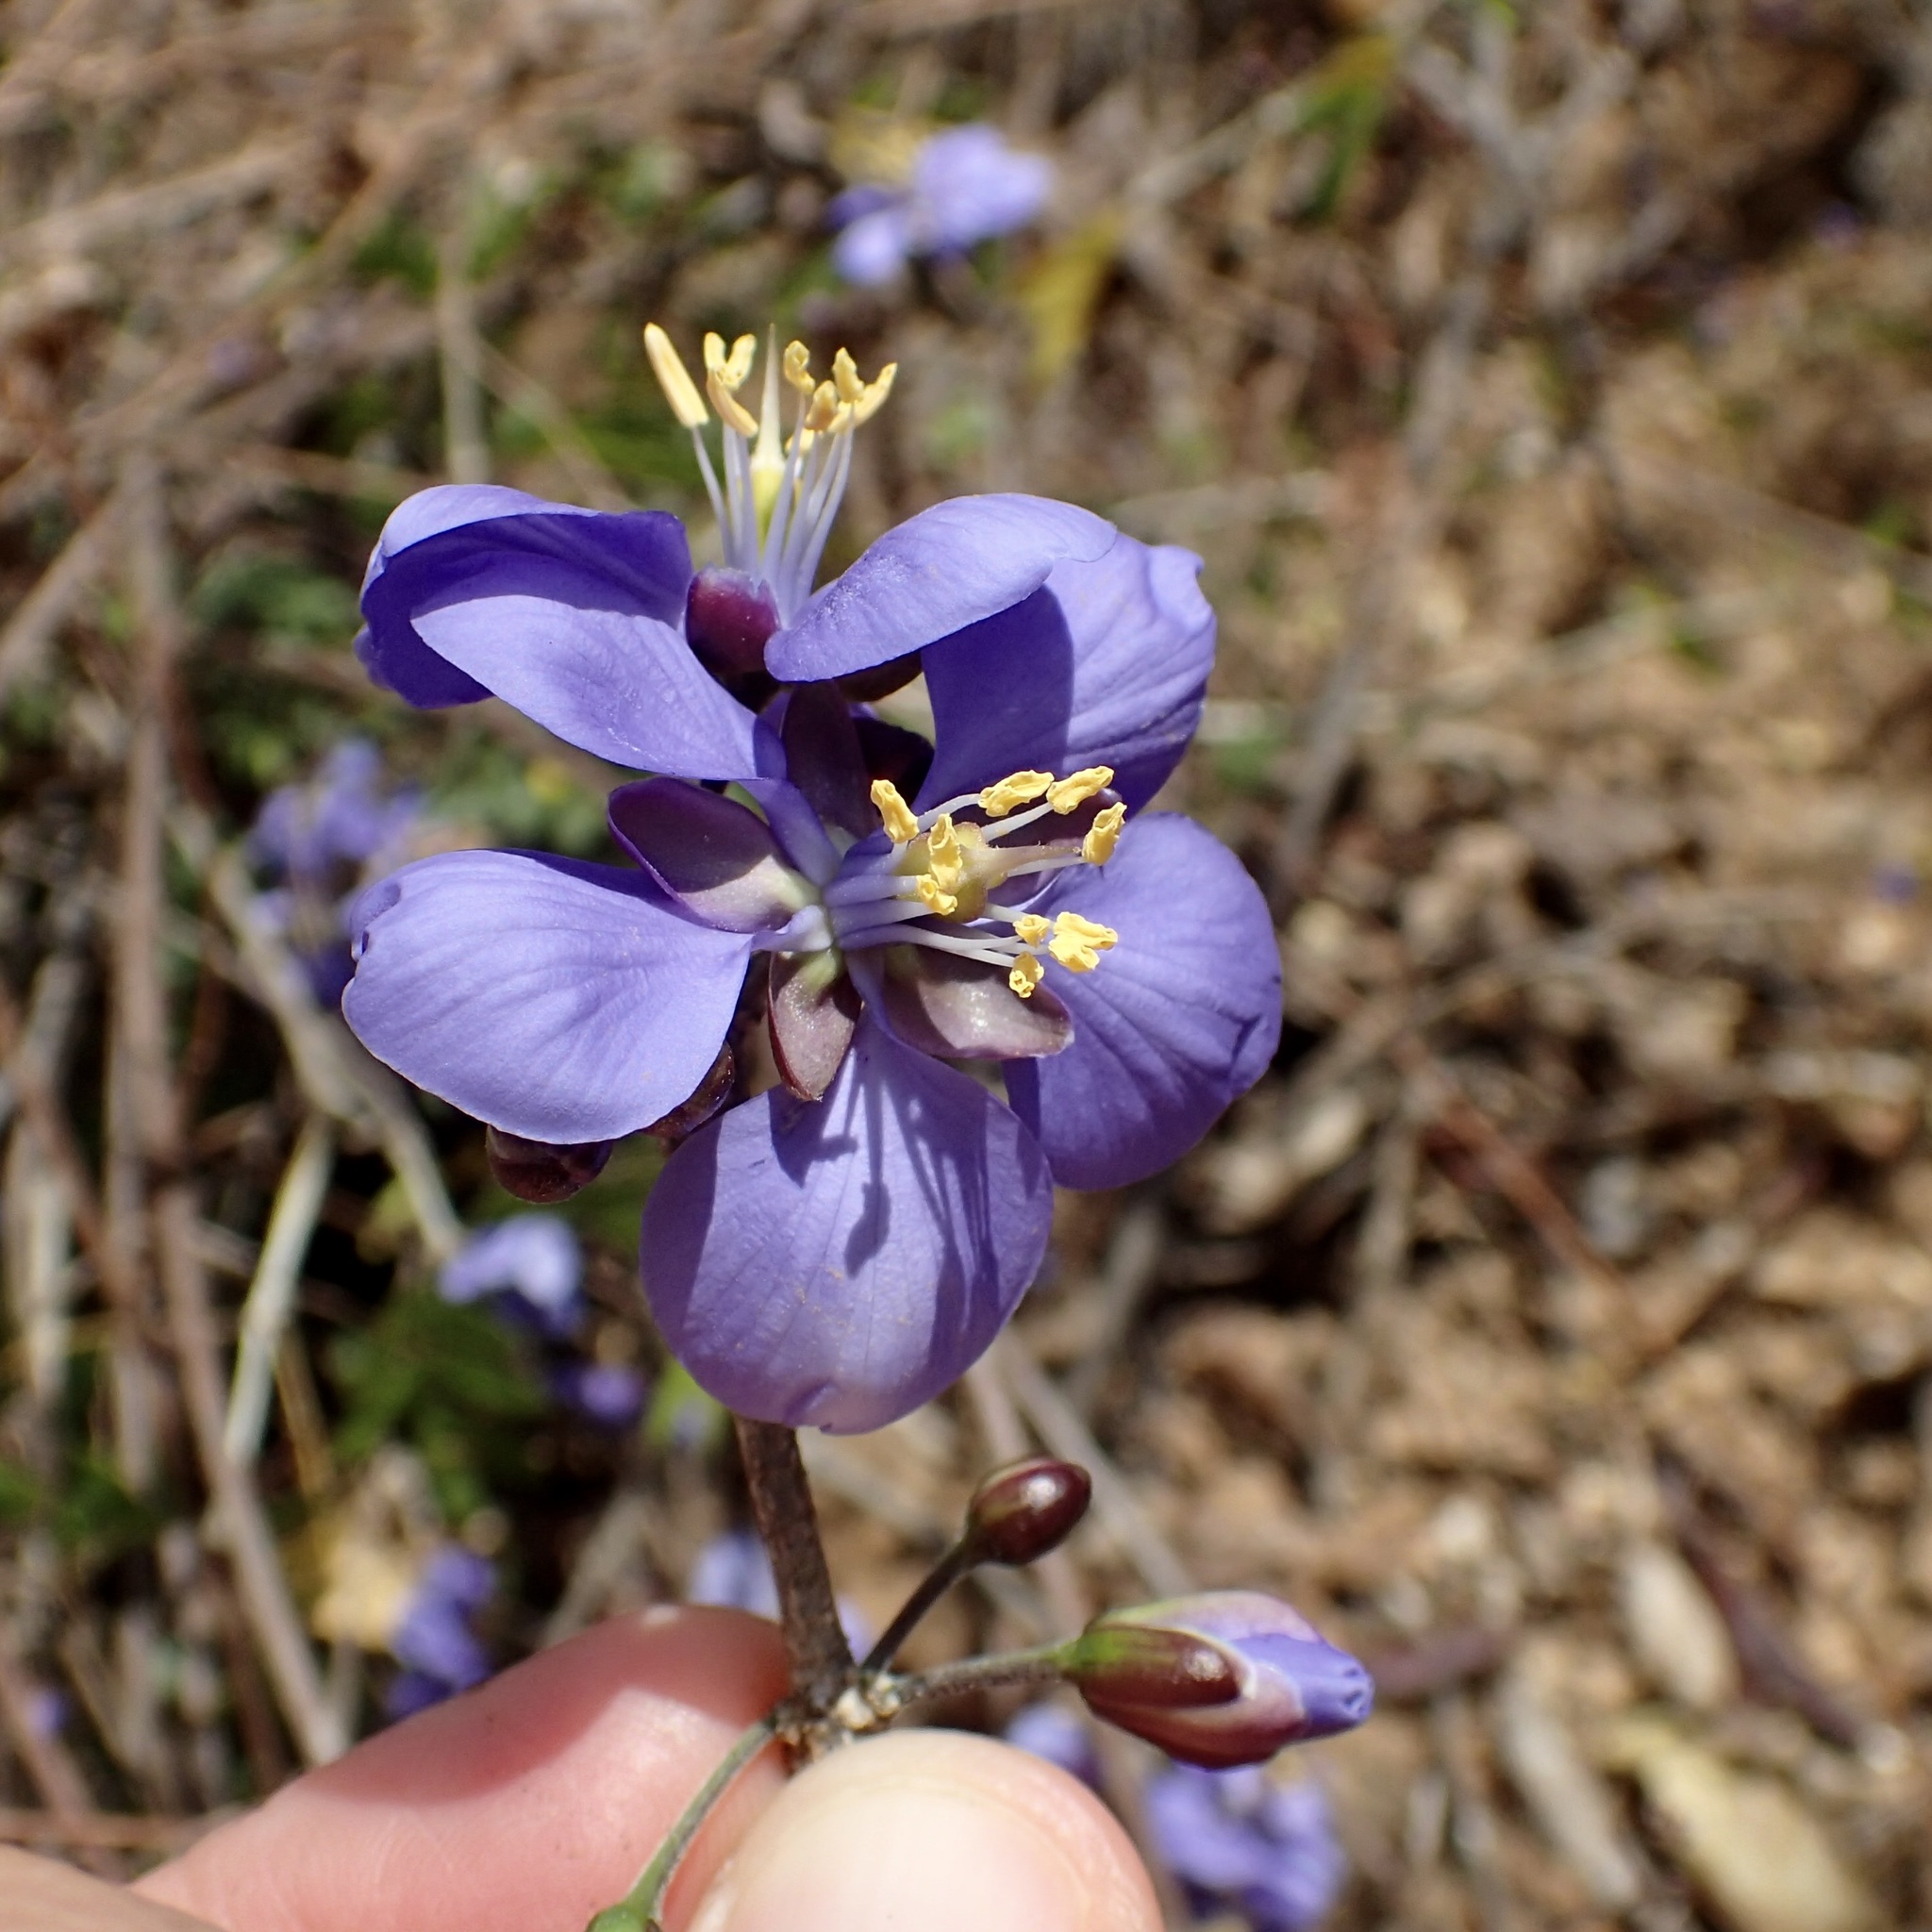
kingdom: Plantae
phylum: Tracheophyta
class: Magnoliopsida
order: Zygophyllales
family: Zygophyllaceae
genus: Guaiacum
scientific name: Guaiacum coulteri
